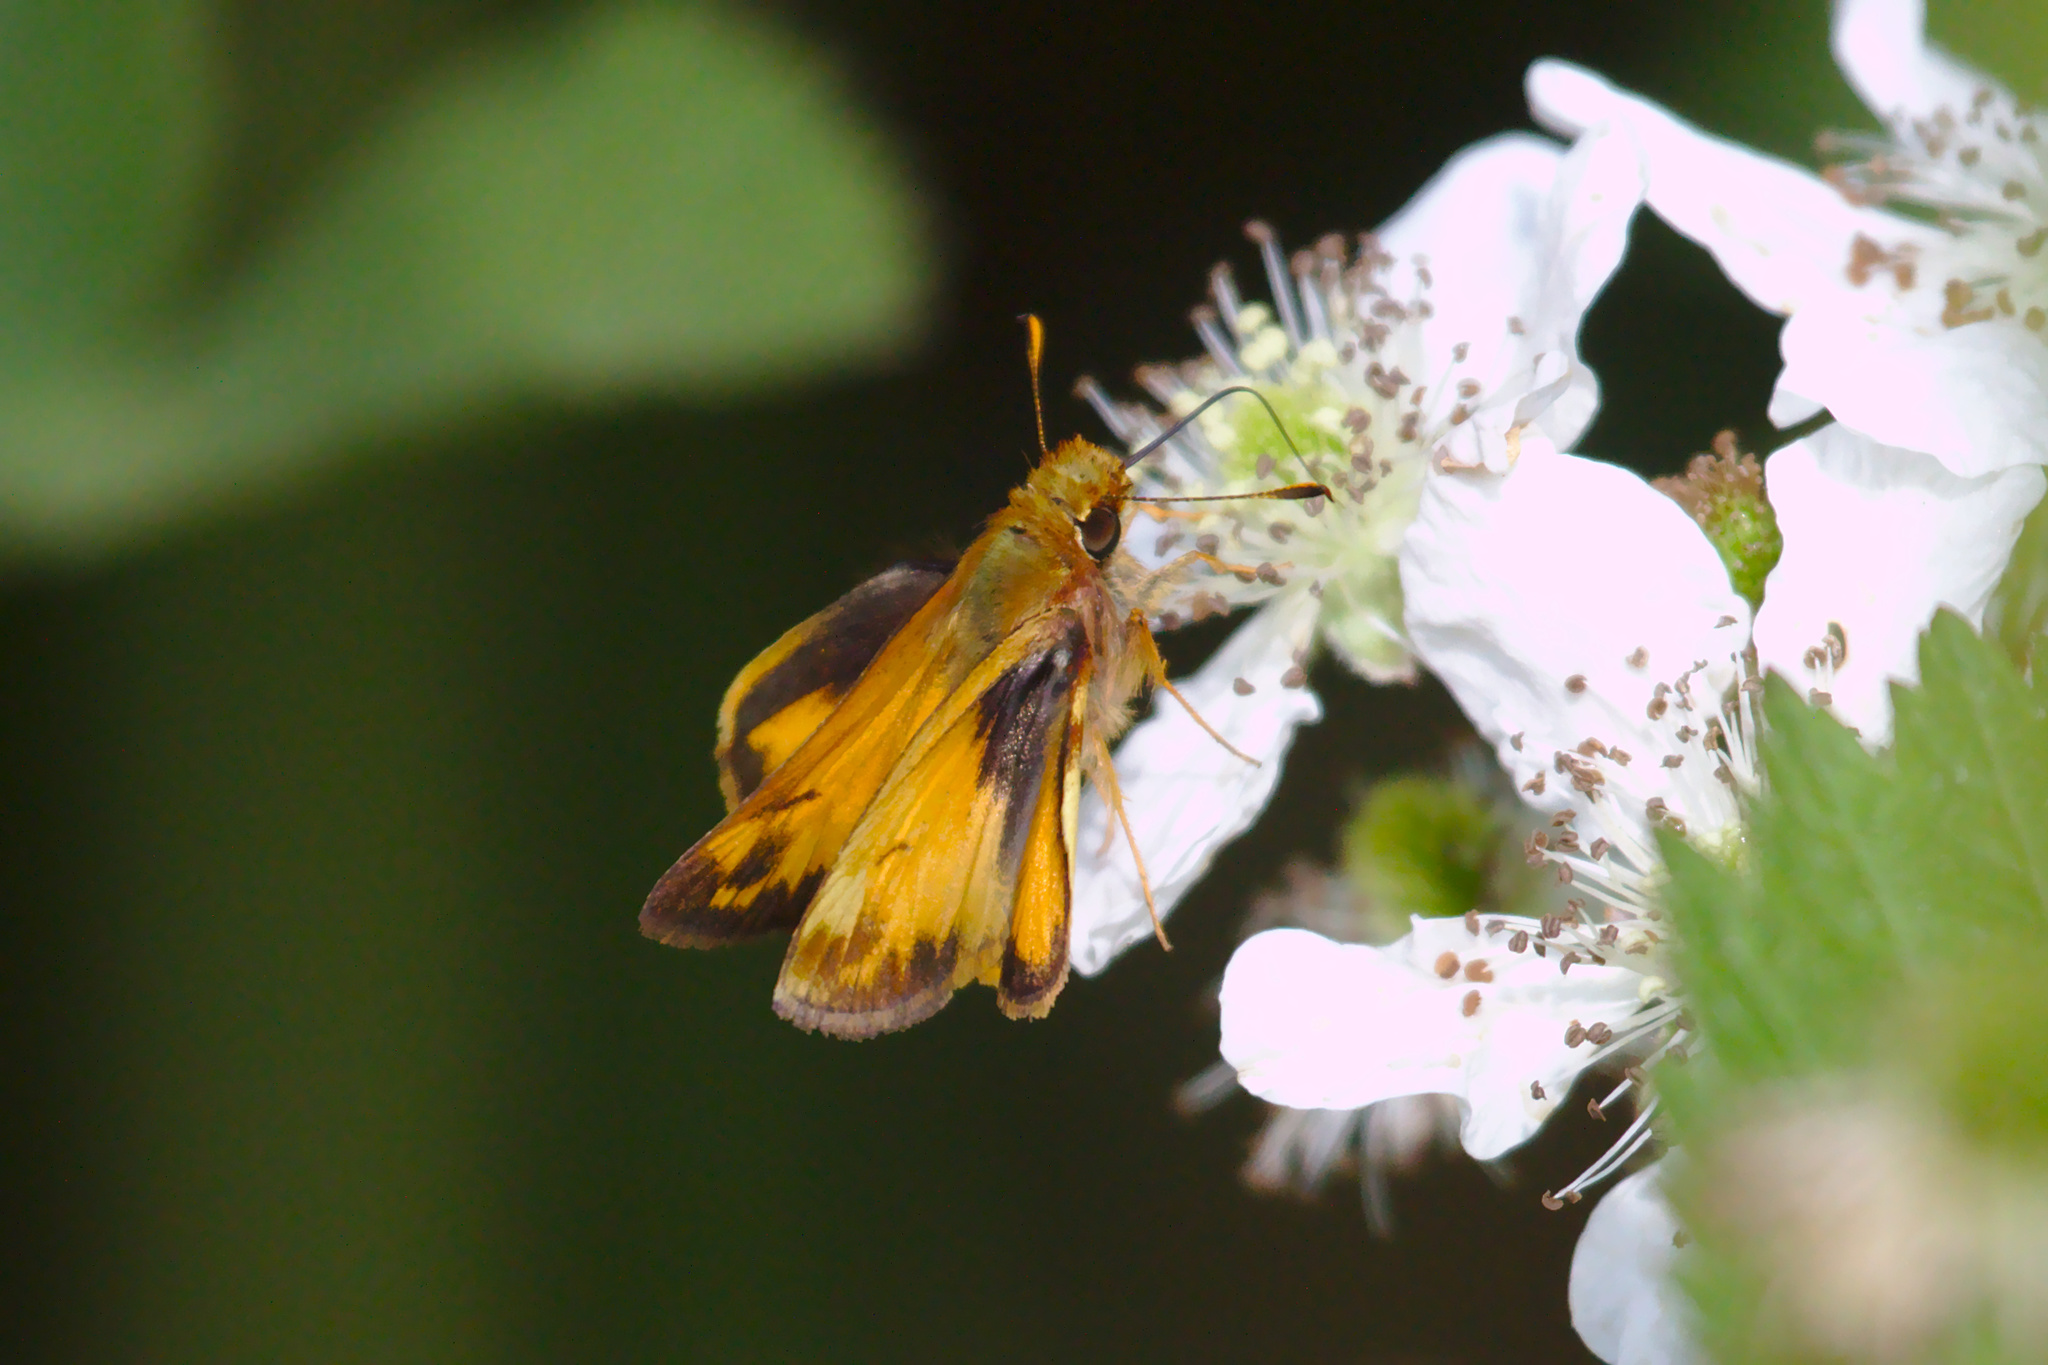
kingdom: Animalia
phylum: Arthropoda
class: Insecta
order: Lepidoptera
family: Hesperiidae
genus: Lon
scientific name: Lon zabulon
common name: Zabulon skipper
